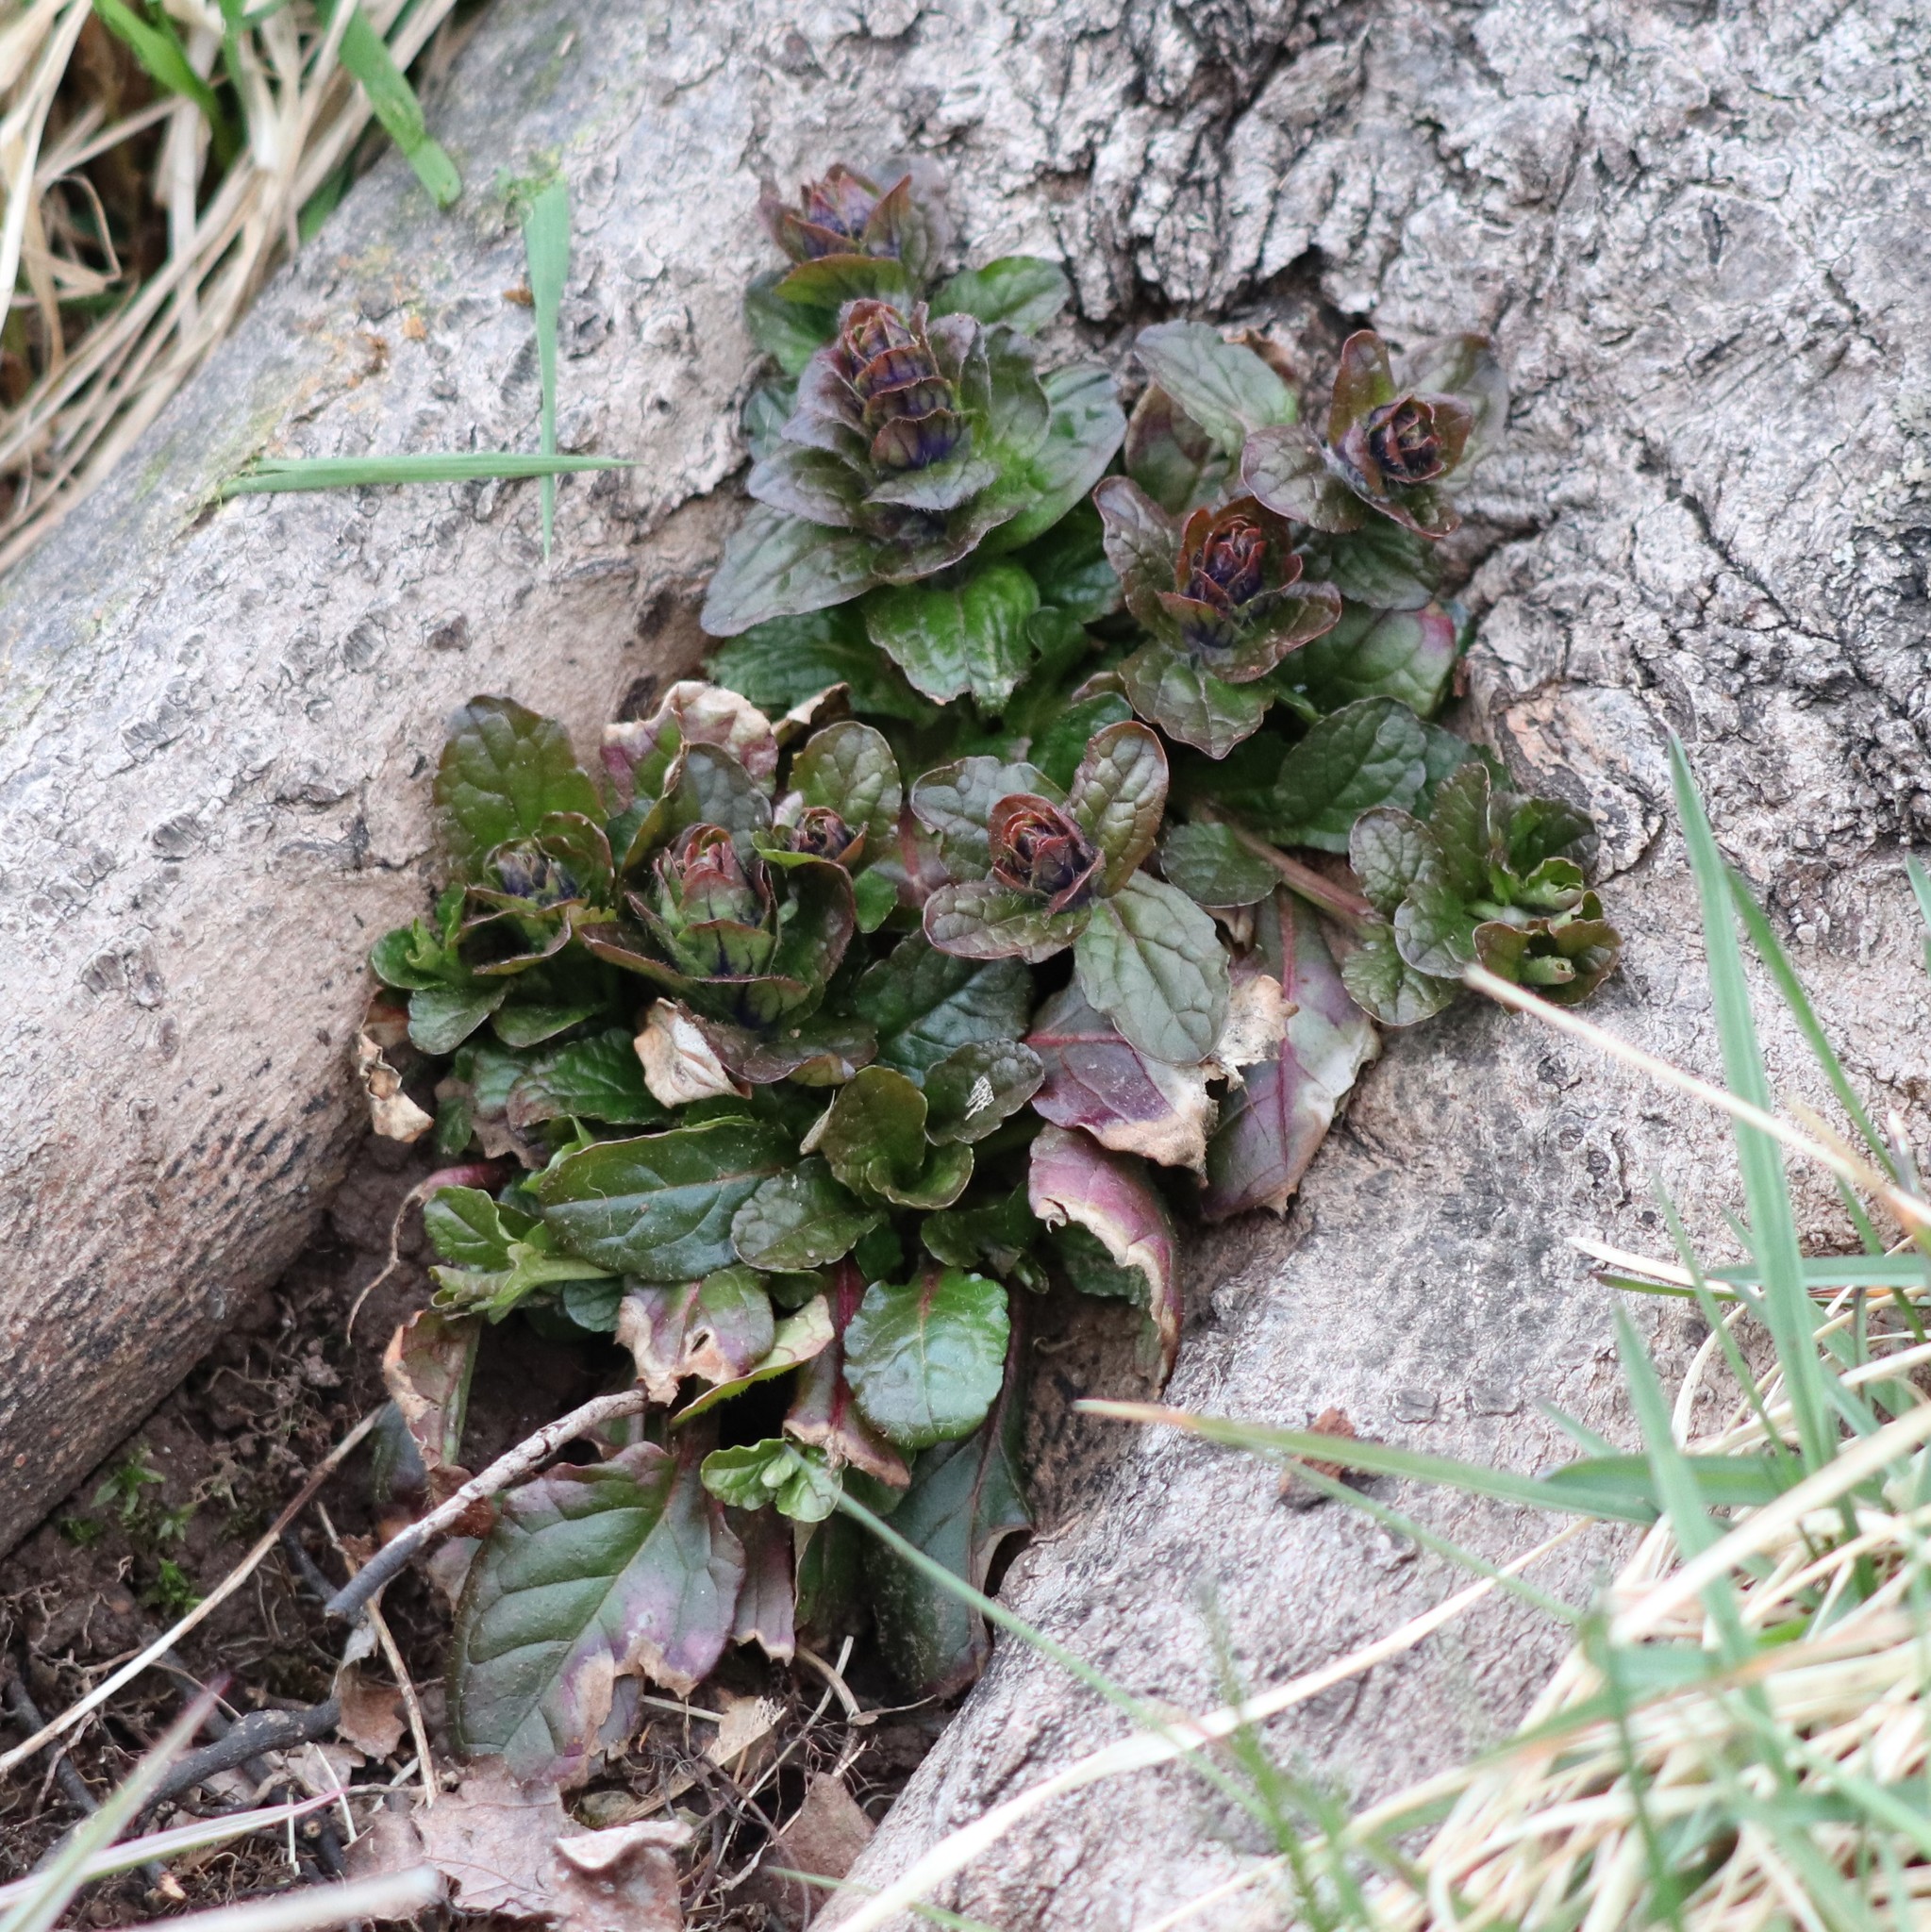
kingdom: Plantae
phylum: Tracheophyta
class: Magnoliopsida
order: Lamiales
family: Lamiaceae
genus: Ajuga
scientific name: Ajuga reptans
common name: Bugle
